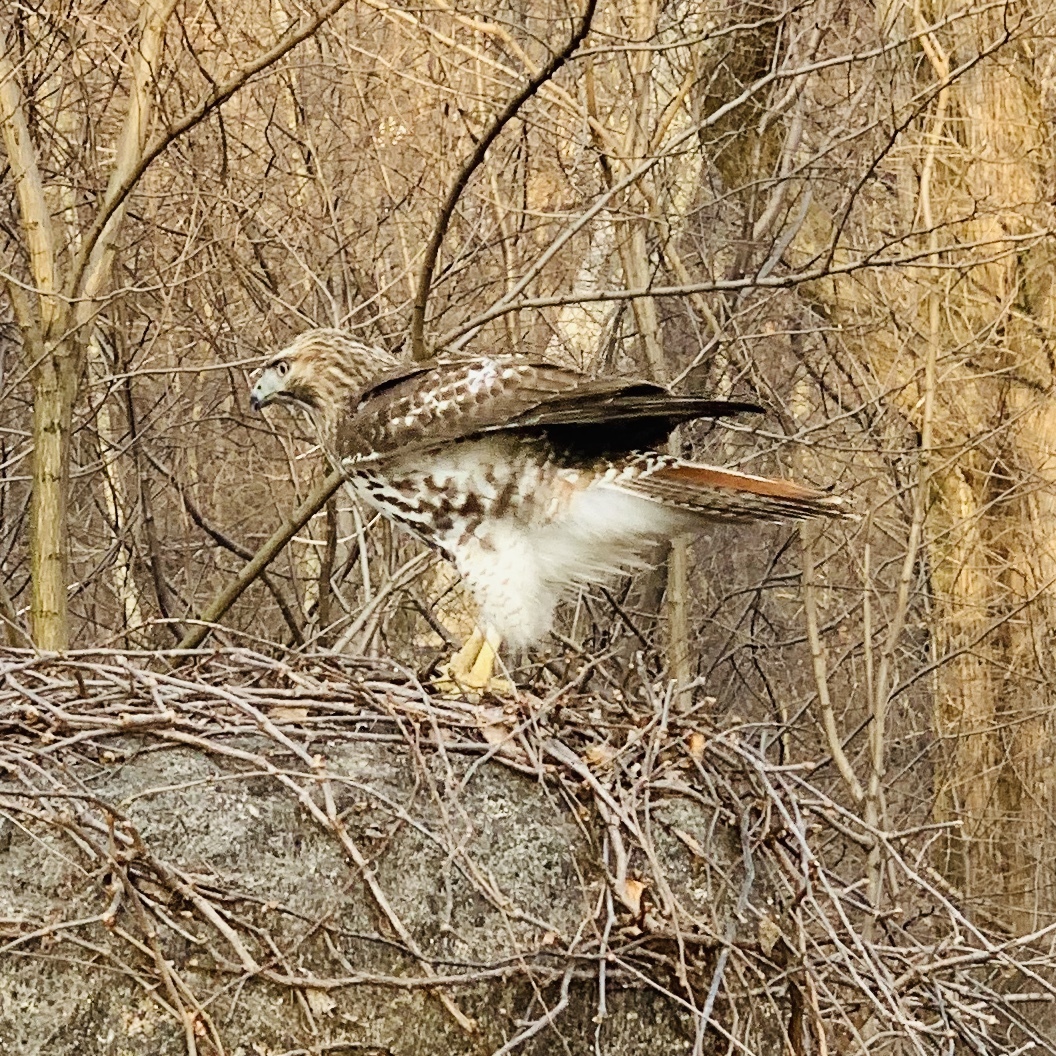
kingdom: Animalia
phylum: Chordata
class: Aves
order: Accipitriformes
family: Accipitridae
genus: Buteo
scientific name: Buteo jamaicensis
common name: Red-tailed hawk
